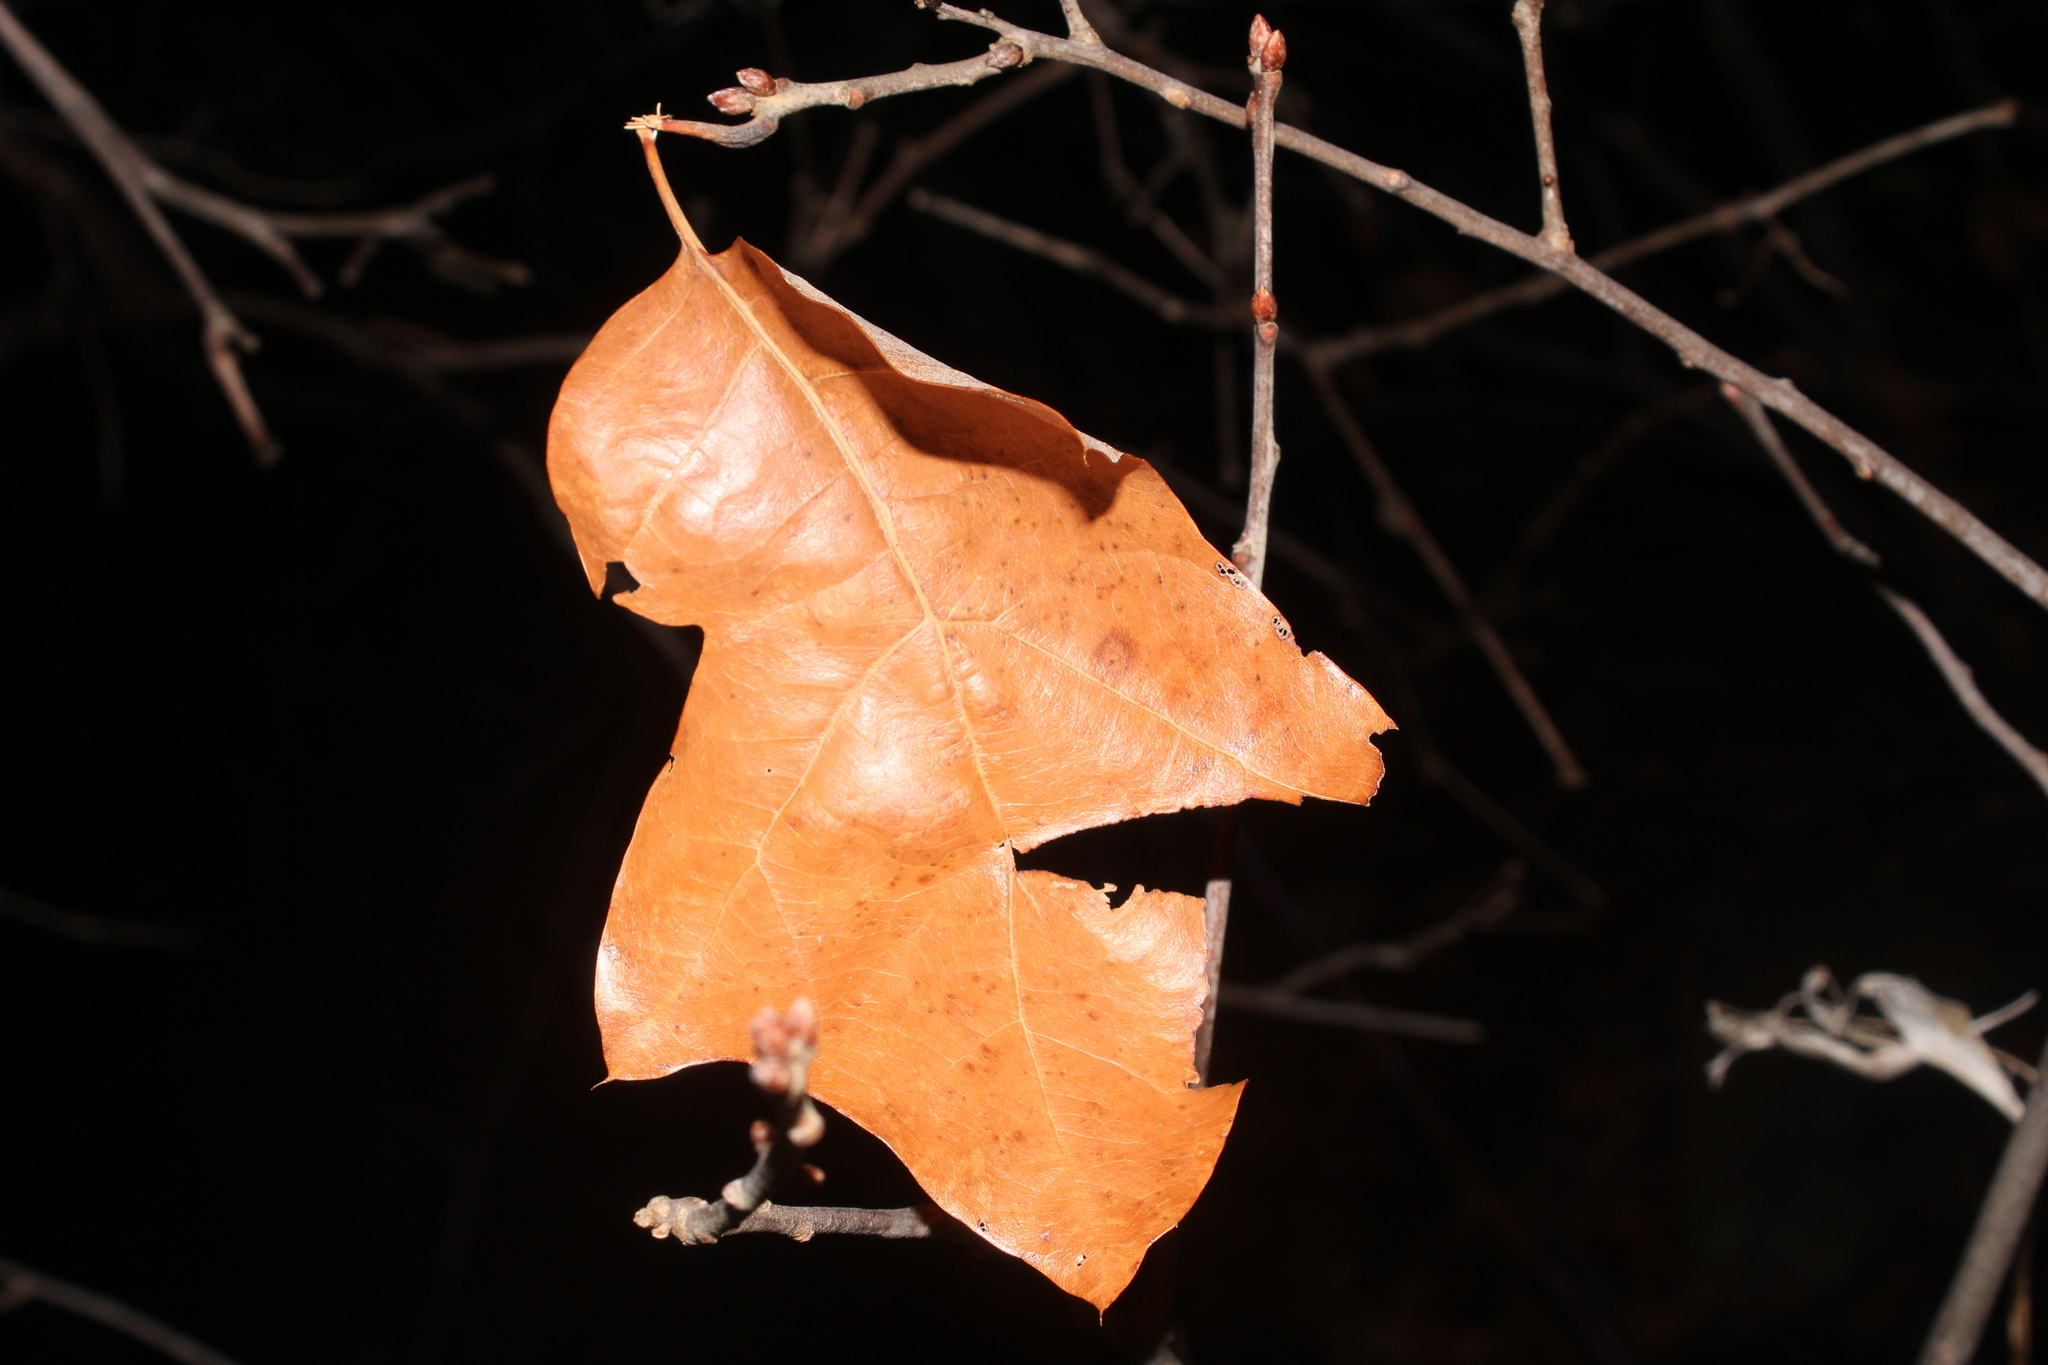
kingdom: Plantae
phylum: Tracheophyta
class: Magnoliopsida
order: Fagales
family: Fagaceae
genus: Quercus
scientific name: Quercus ilicifolia
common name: Bear oak
